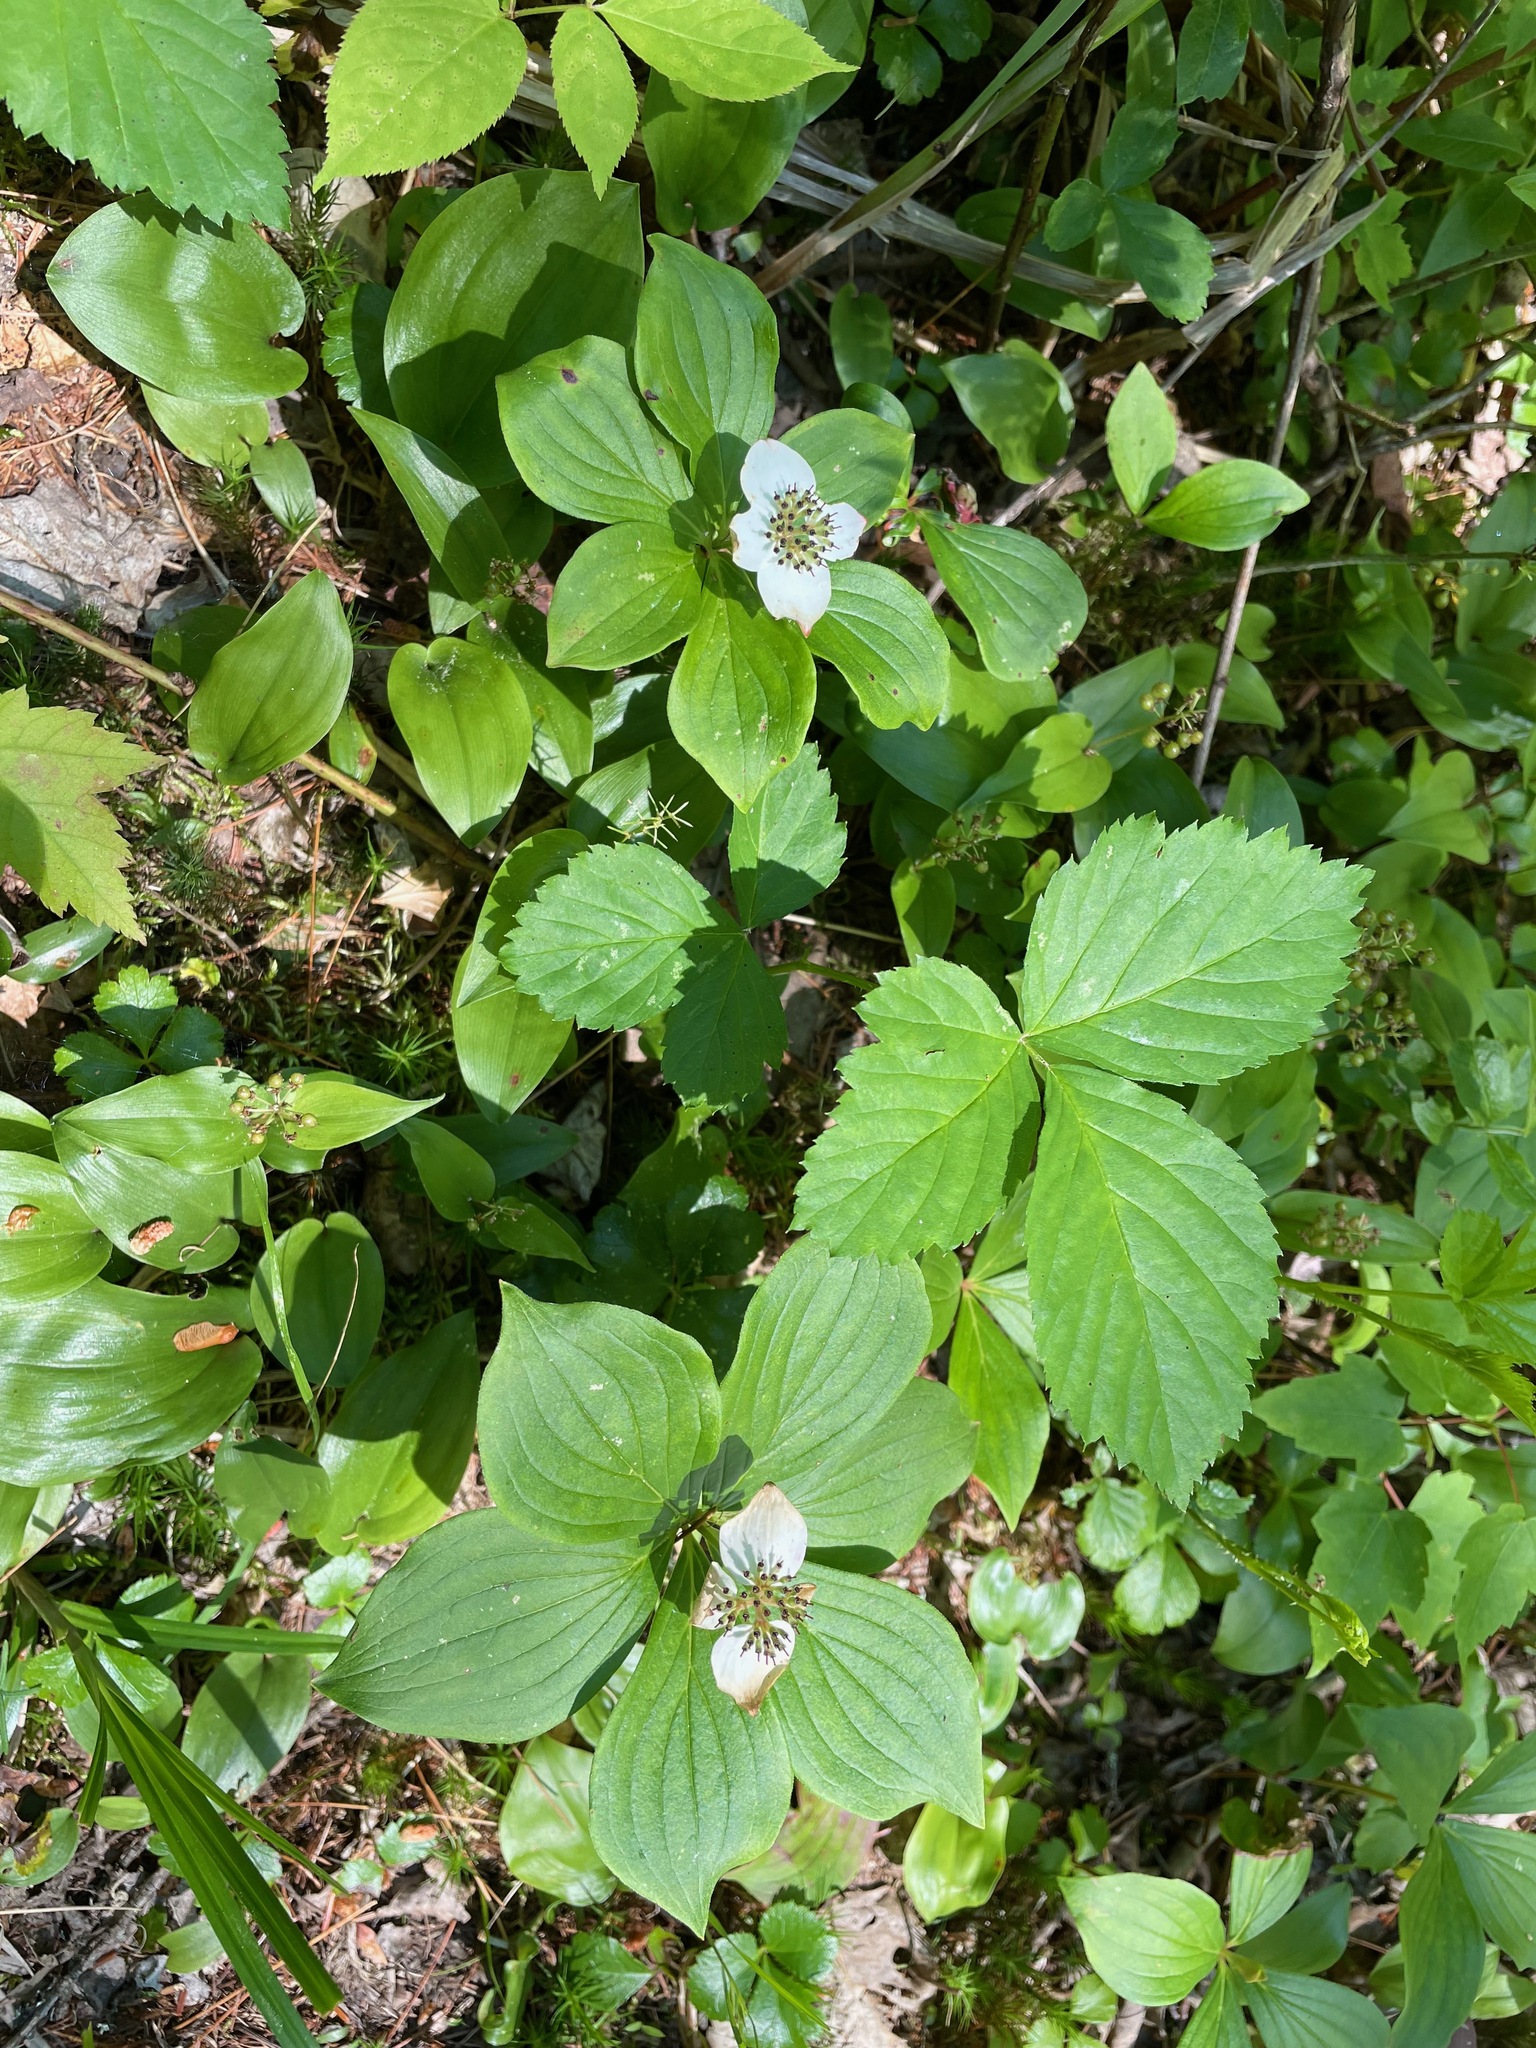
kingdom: Plantae
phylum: Tracheophyta
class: Magnoliopsida
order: Cornales
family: Cornaceae
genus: Cornus
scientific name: Cornus canadensis
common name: Creeping dogwood
